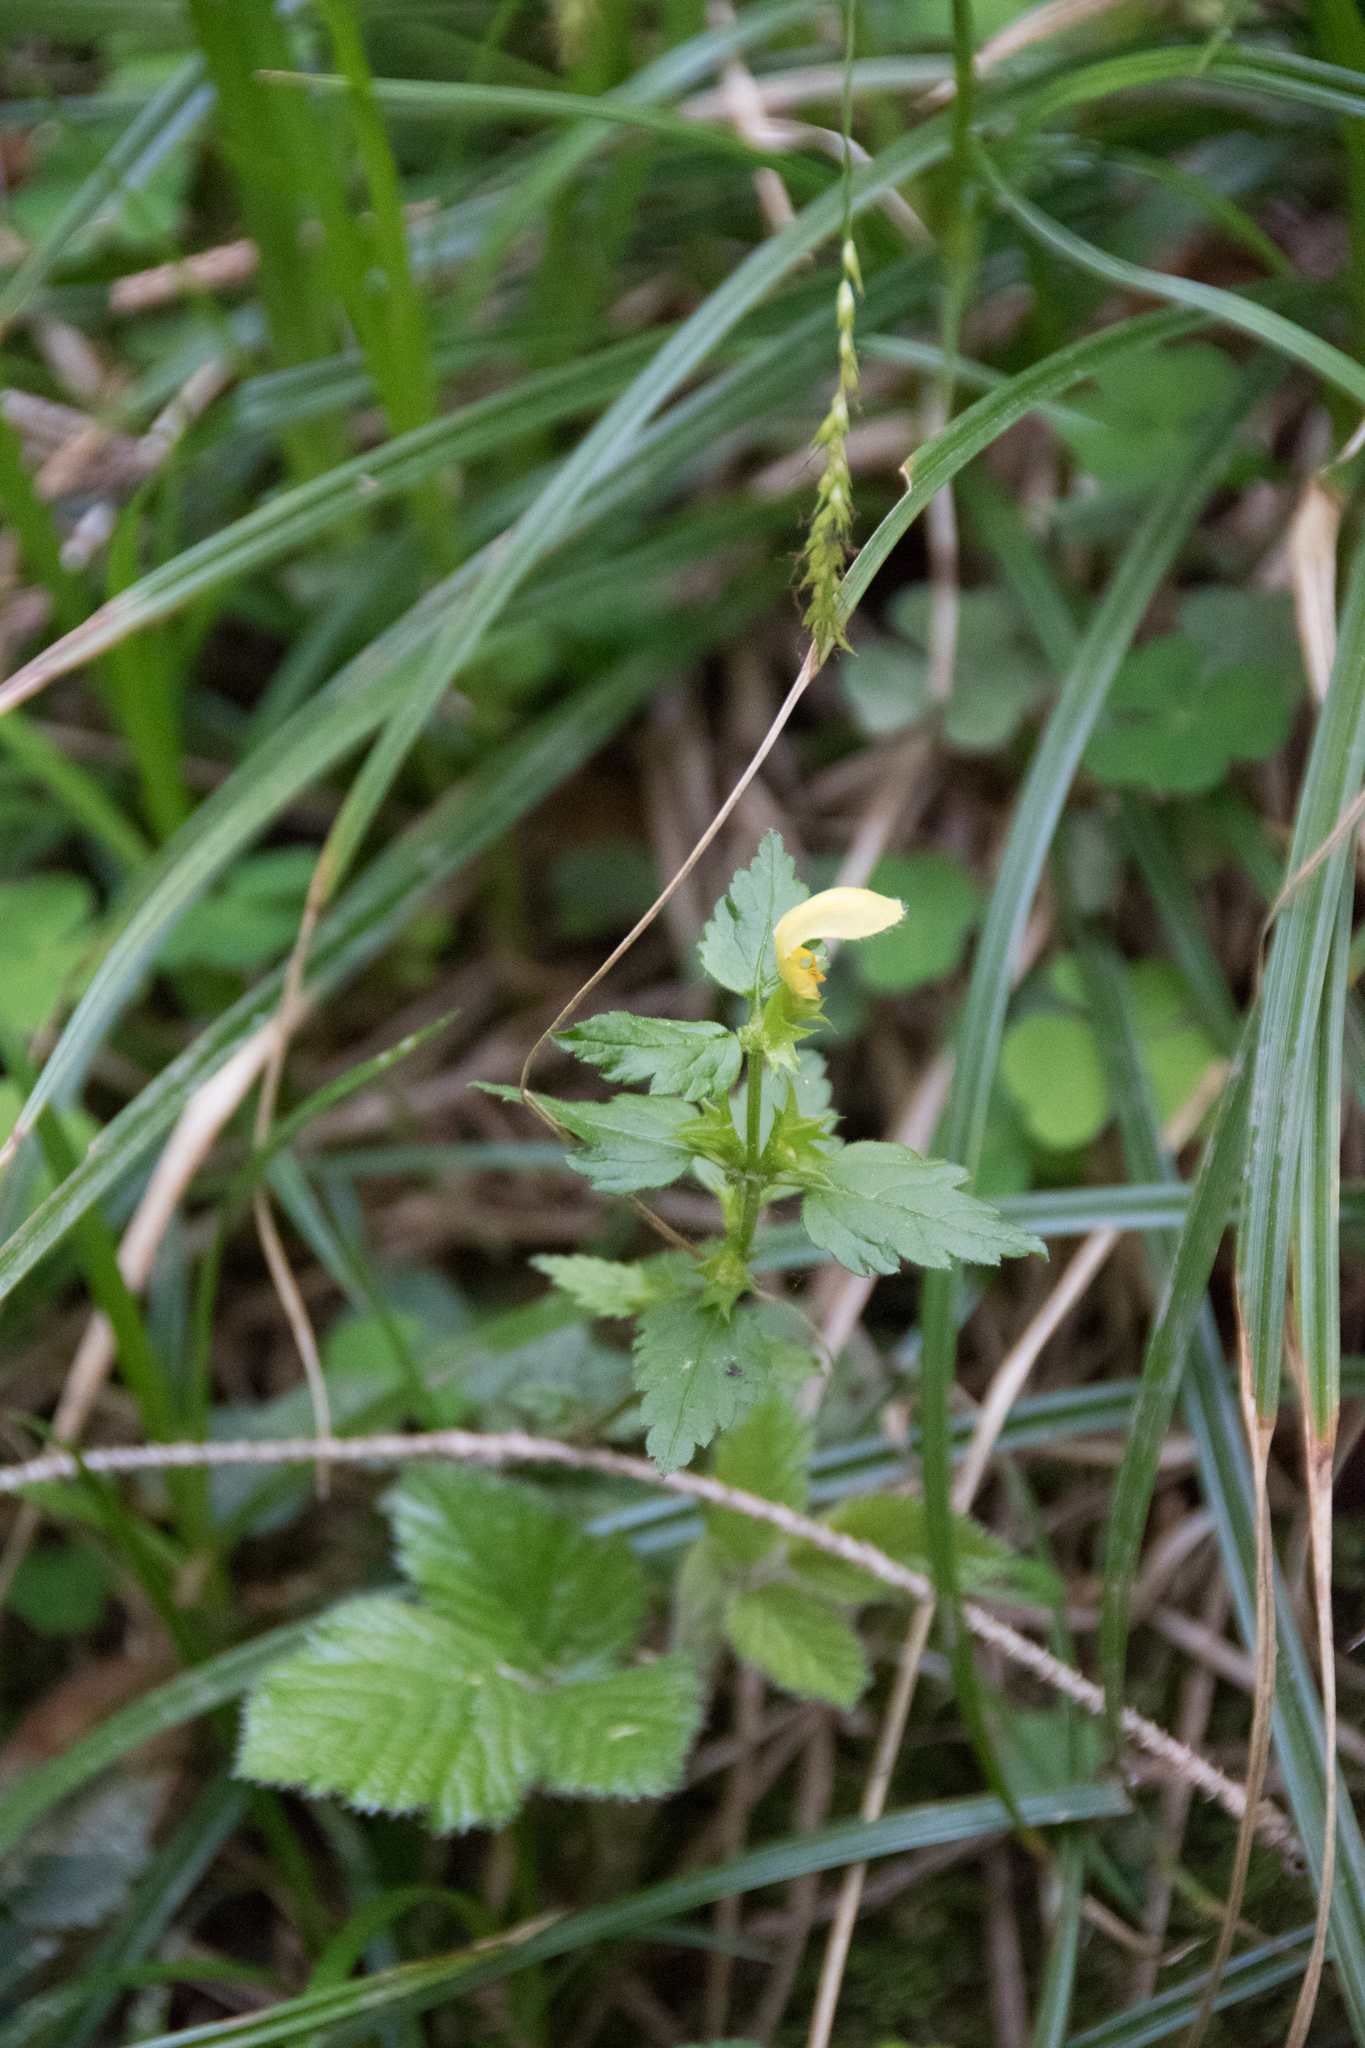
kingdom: Plantae
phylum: Tracheophyta
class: Magnoliopsida
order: Lamiales
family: Lamiaceae
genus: Lamium
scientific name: Lamium galeobdolon
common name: Yellow archangel
